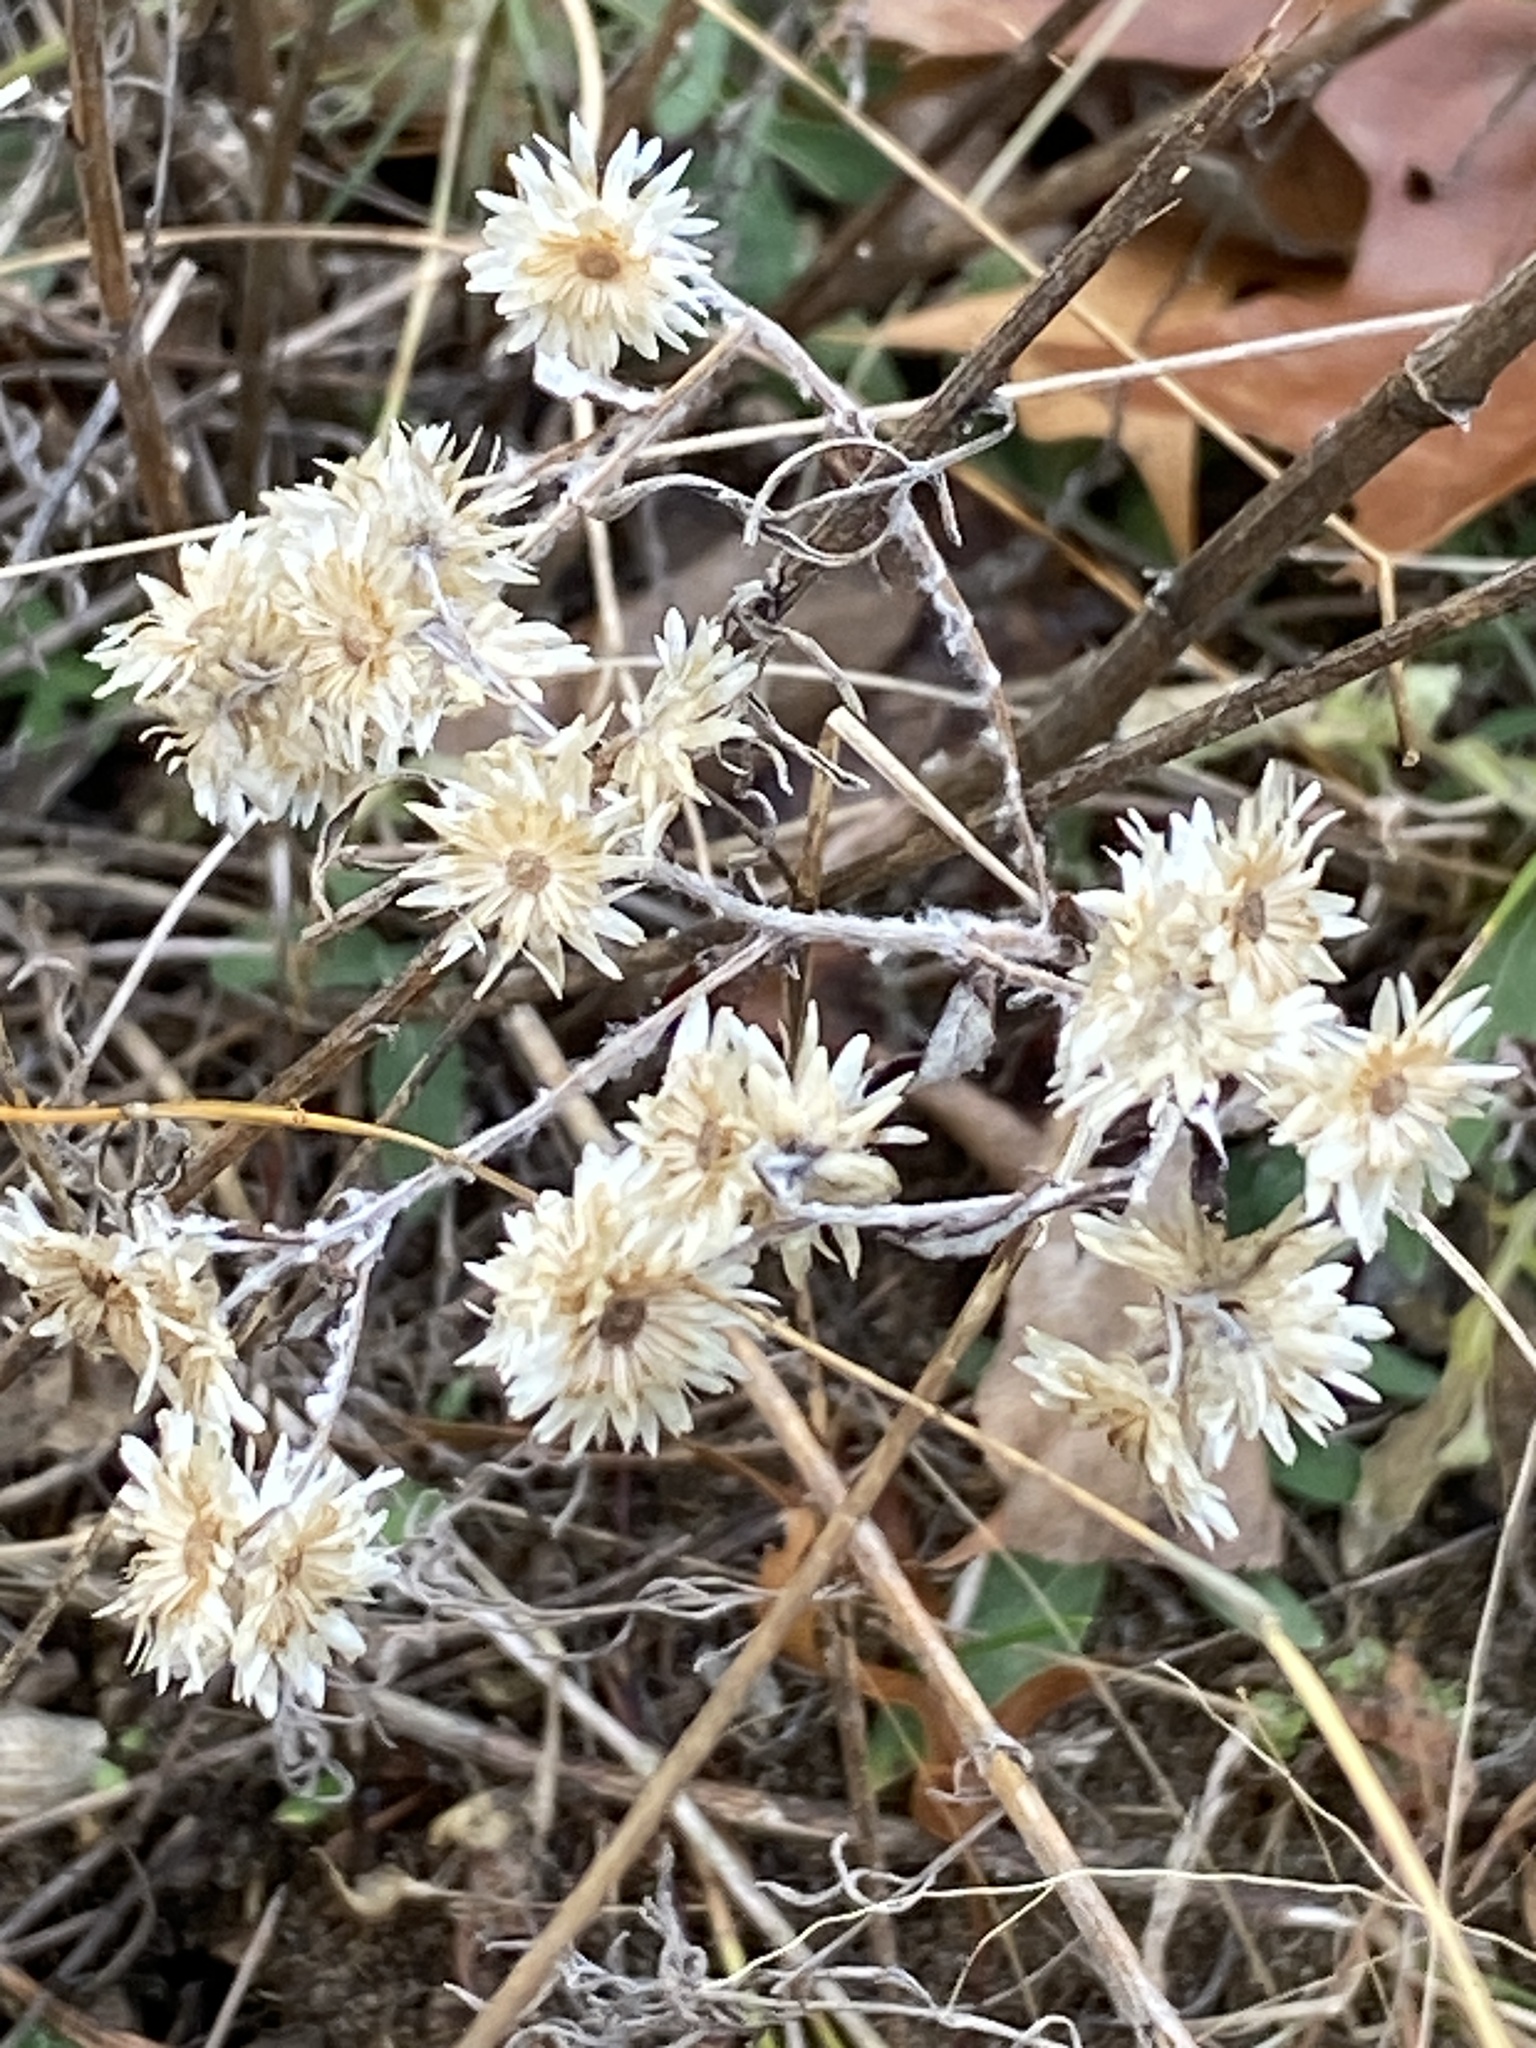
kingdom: Plantae
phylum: Tracheophyta
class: Magnoliopsida
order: Asterales
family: Asteraceae
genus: Pseudognaphalium
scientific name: Pseudognaphalium obtusifolium
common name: Eastern rabbit-tobacco
